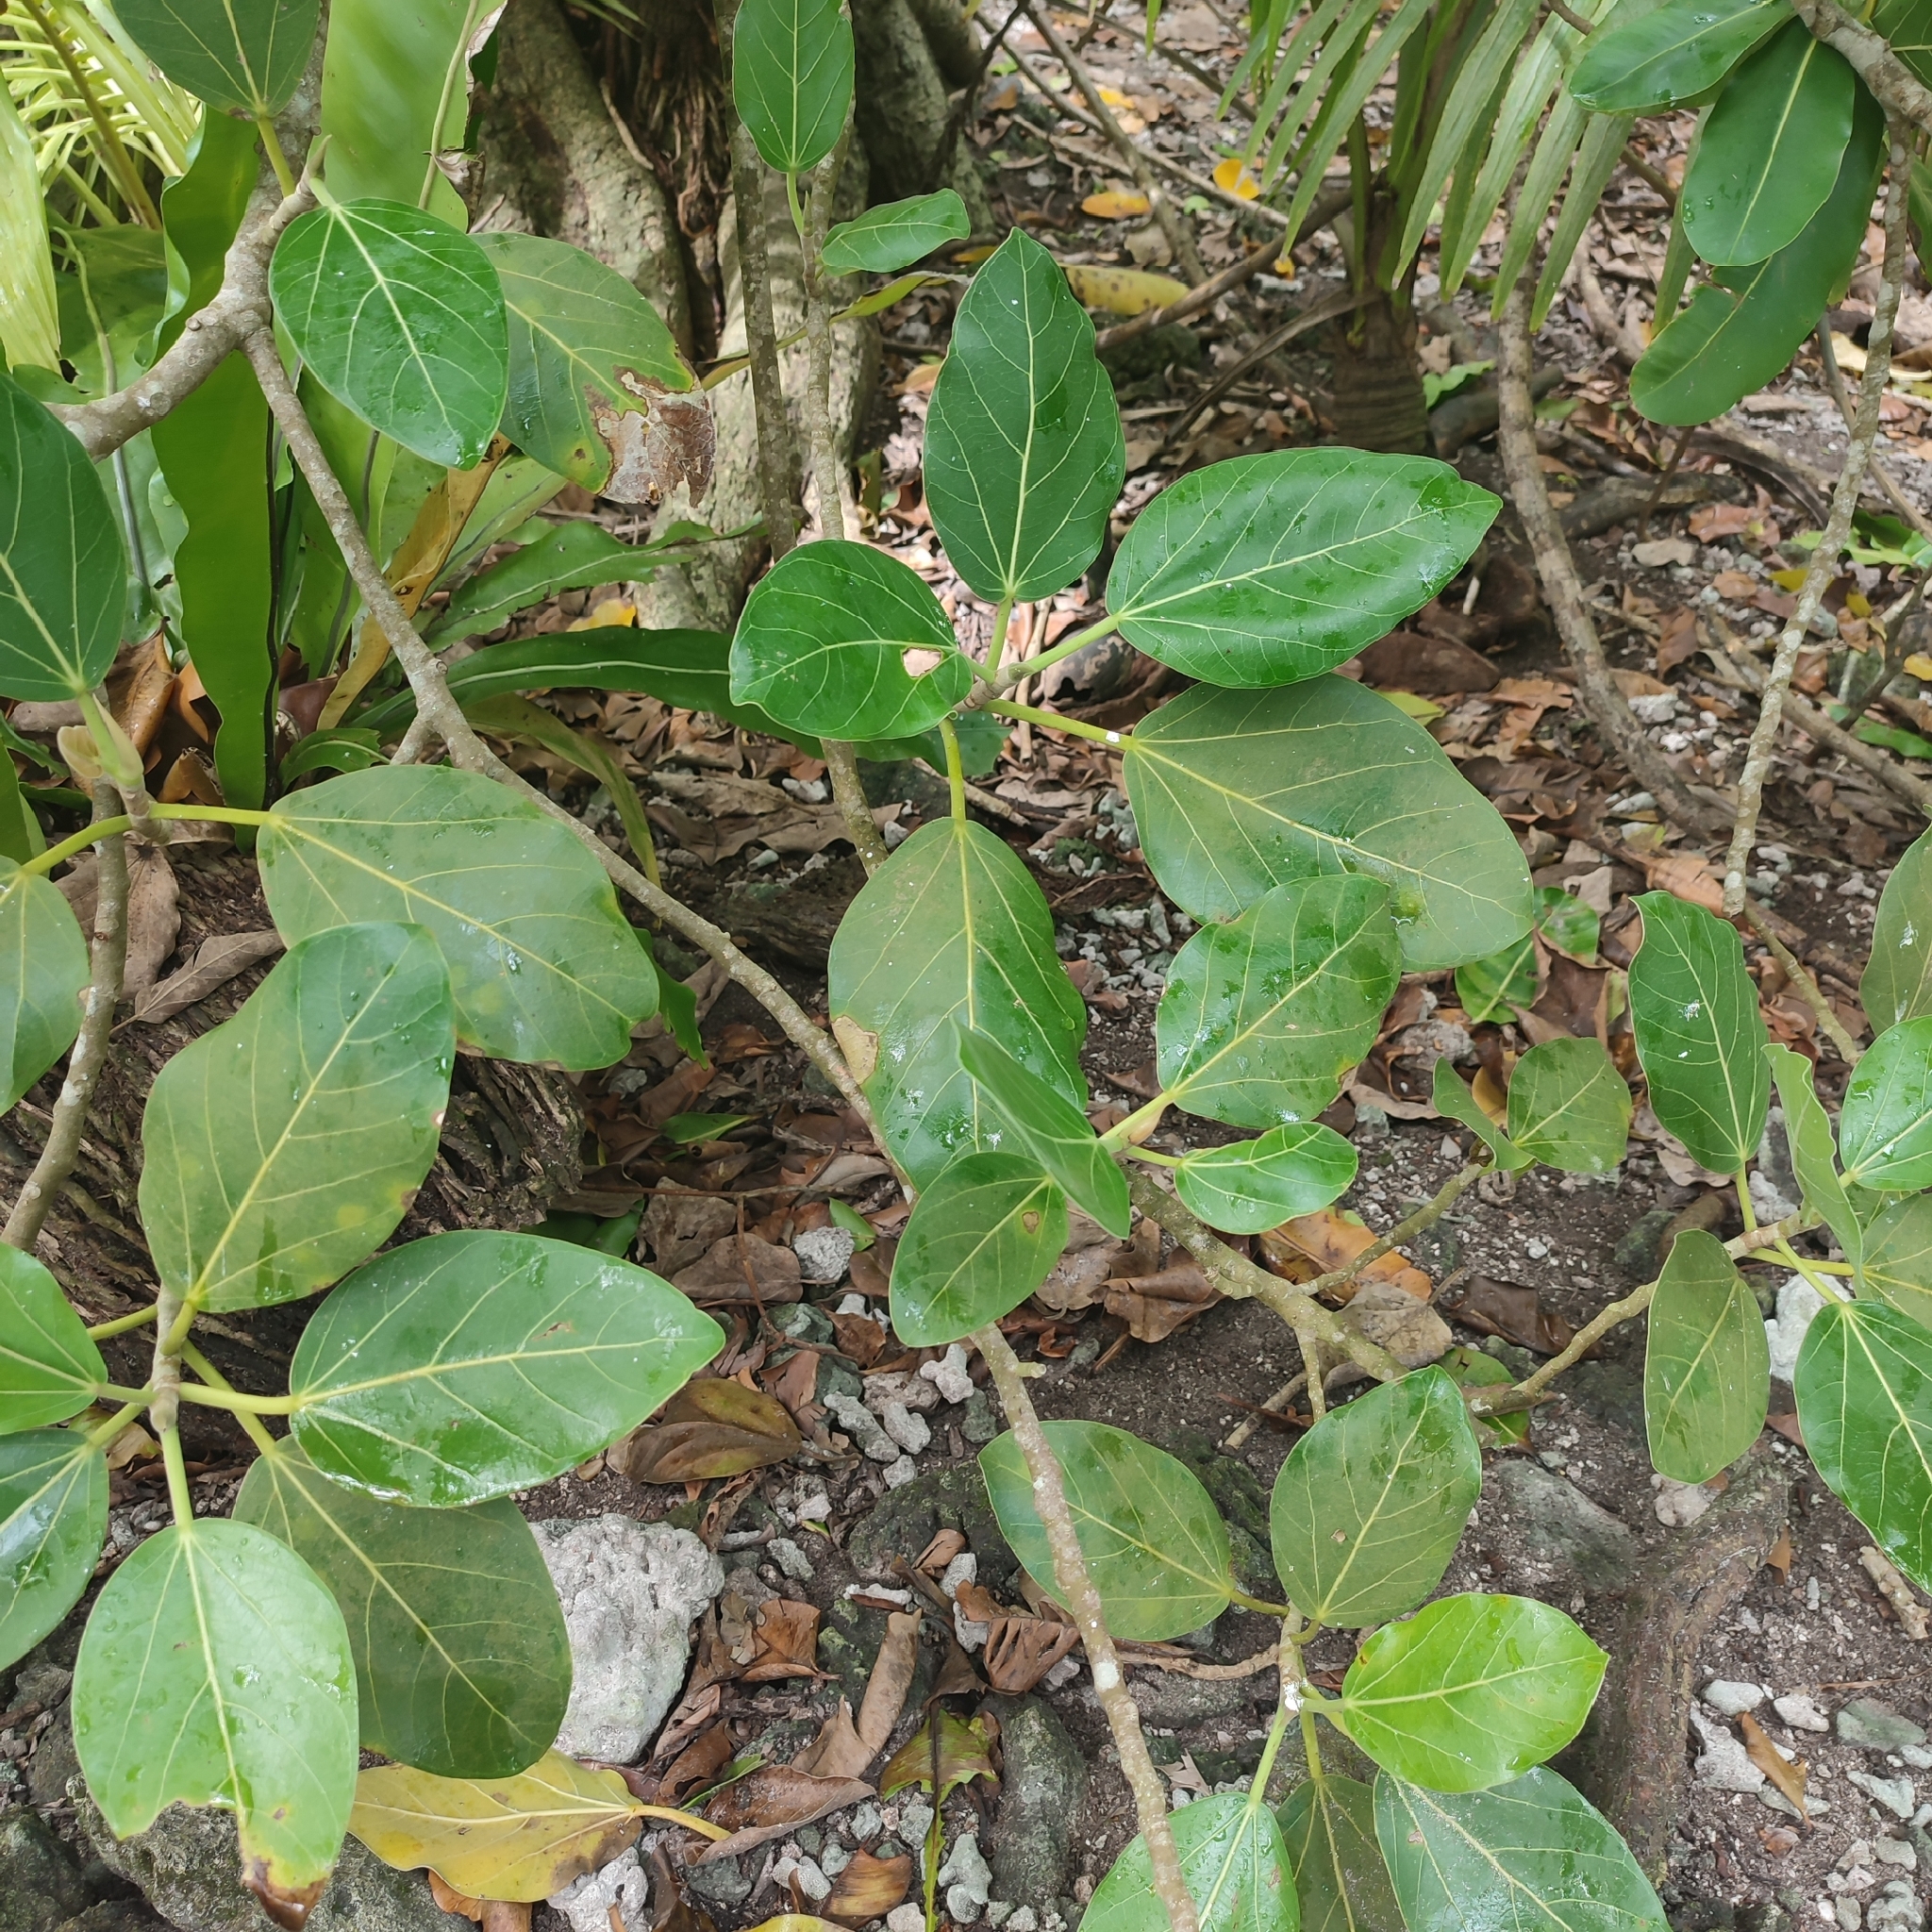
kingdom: Plantae
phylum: Tracheophyta
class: Magnoliopsida
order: Rosales
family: Moraceae
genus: Ficus
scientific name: Ficus benghalensis
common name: Indian banyan
